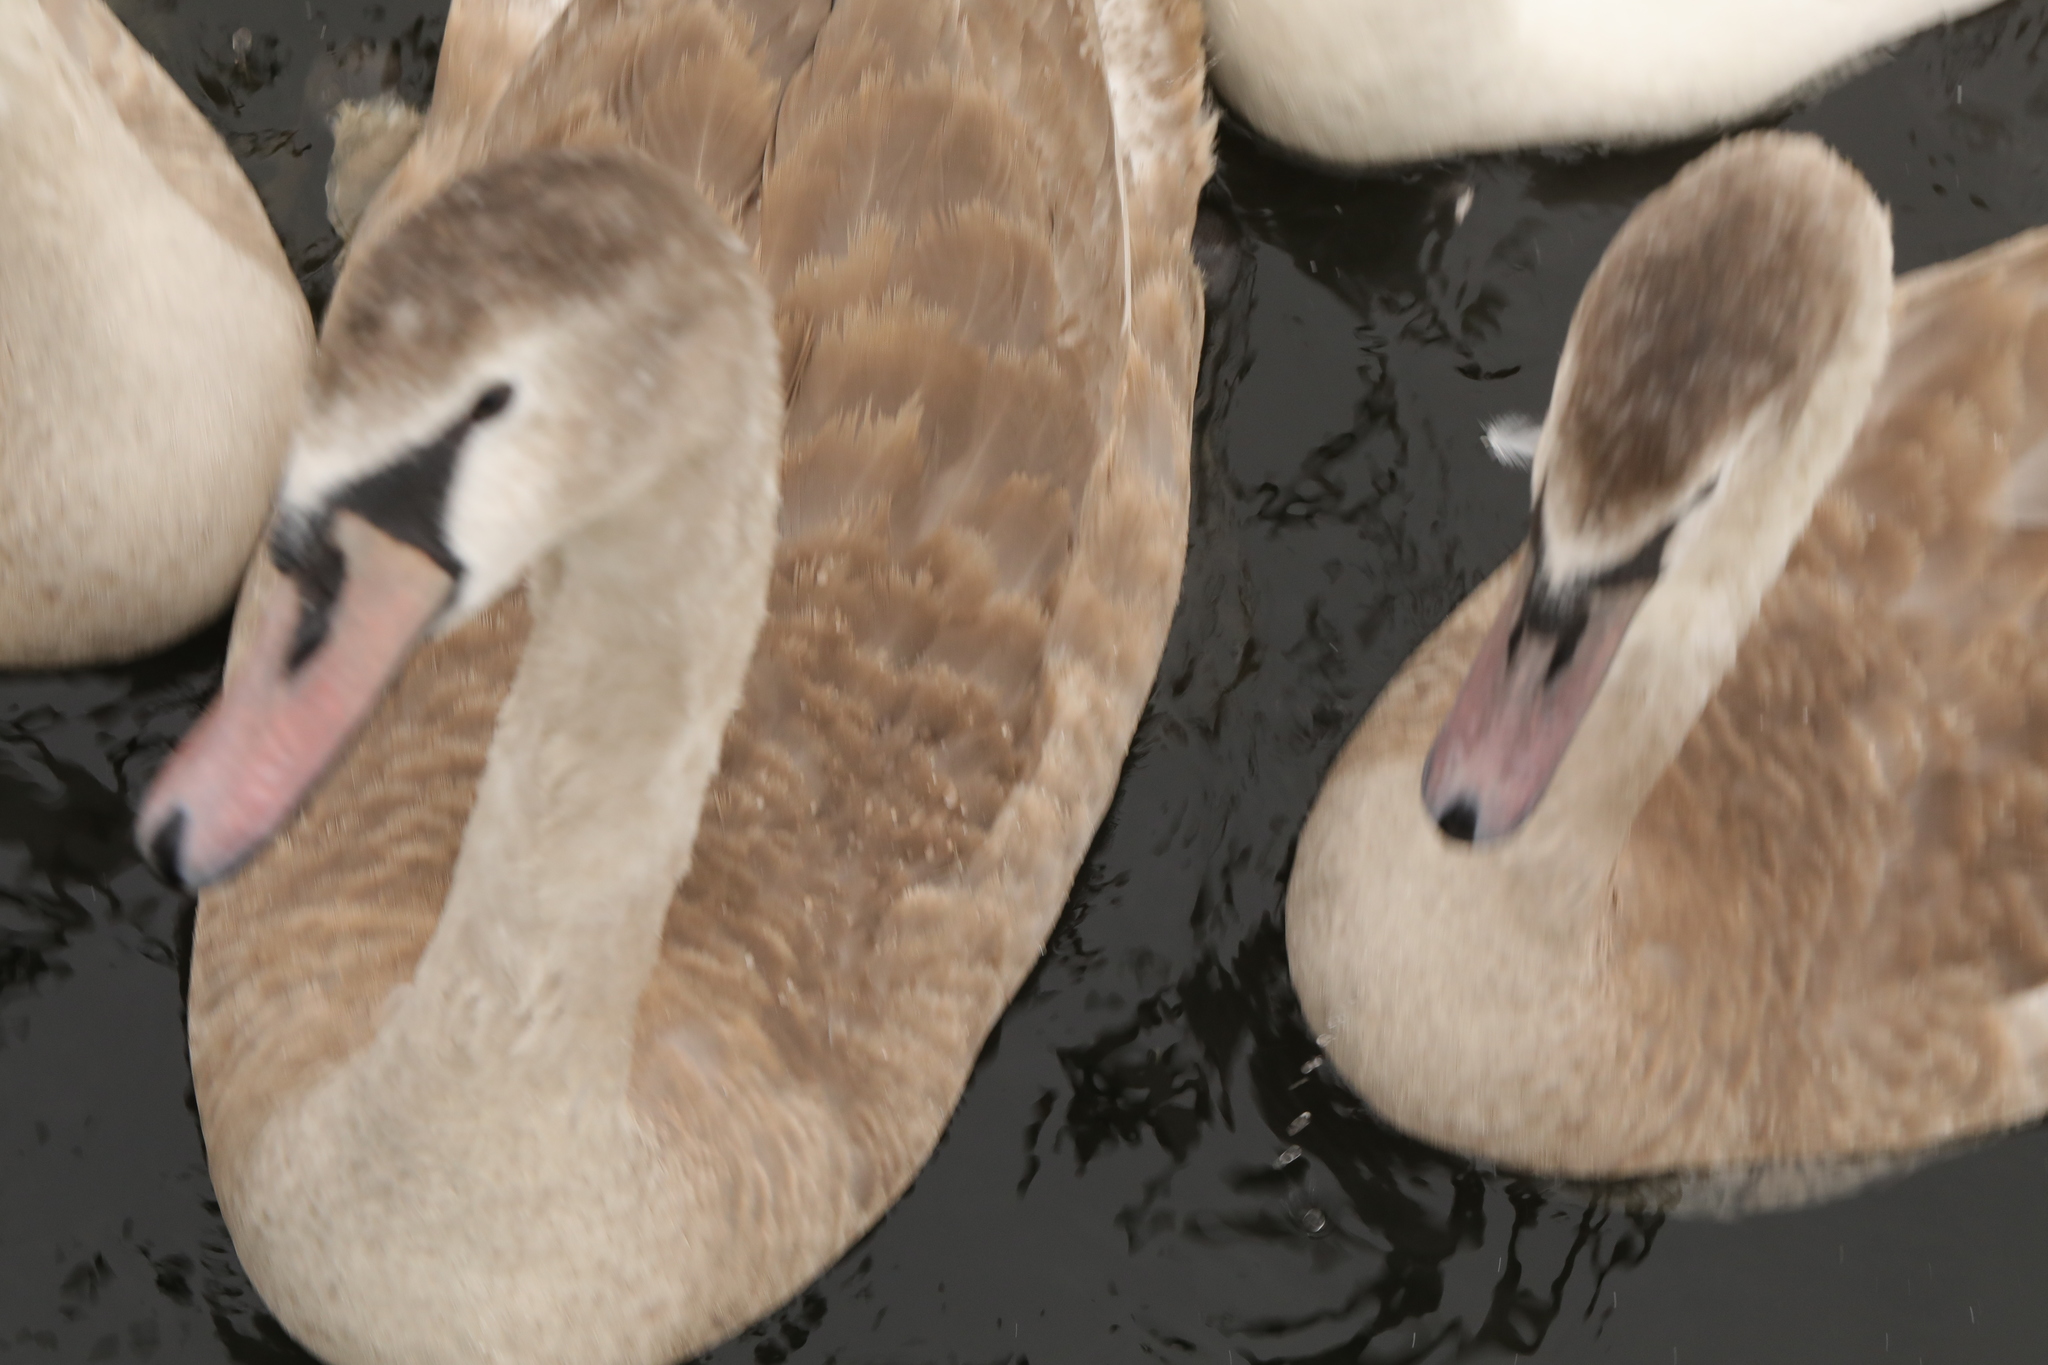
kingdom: Animalia
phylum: Chordata
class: Aves
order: Anseriformes
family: Anatidae
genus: Cygnus
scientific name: Cygnus olor
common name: Mute swan
